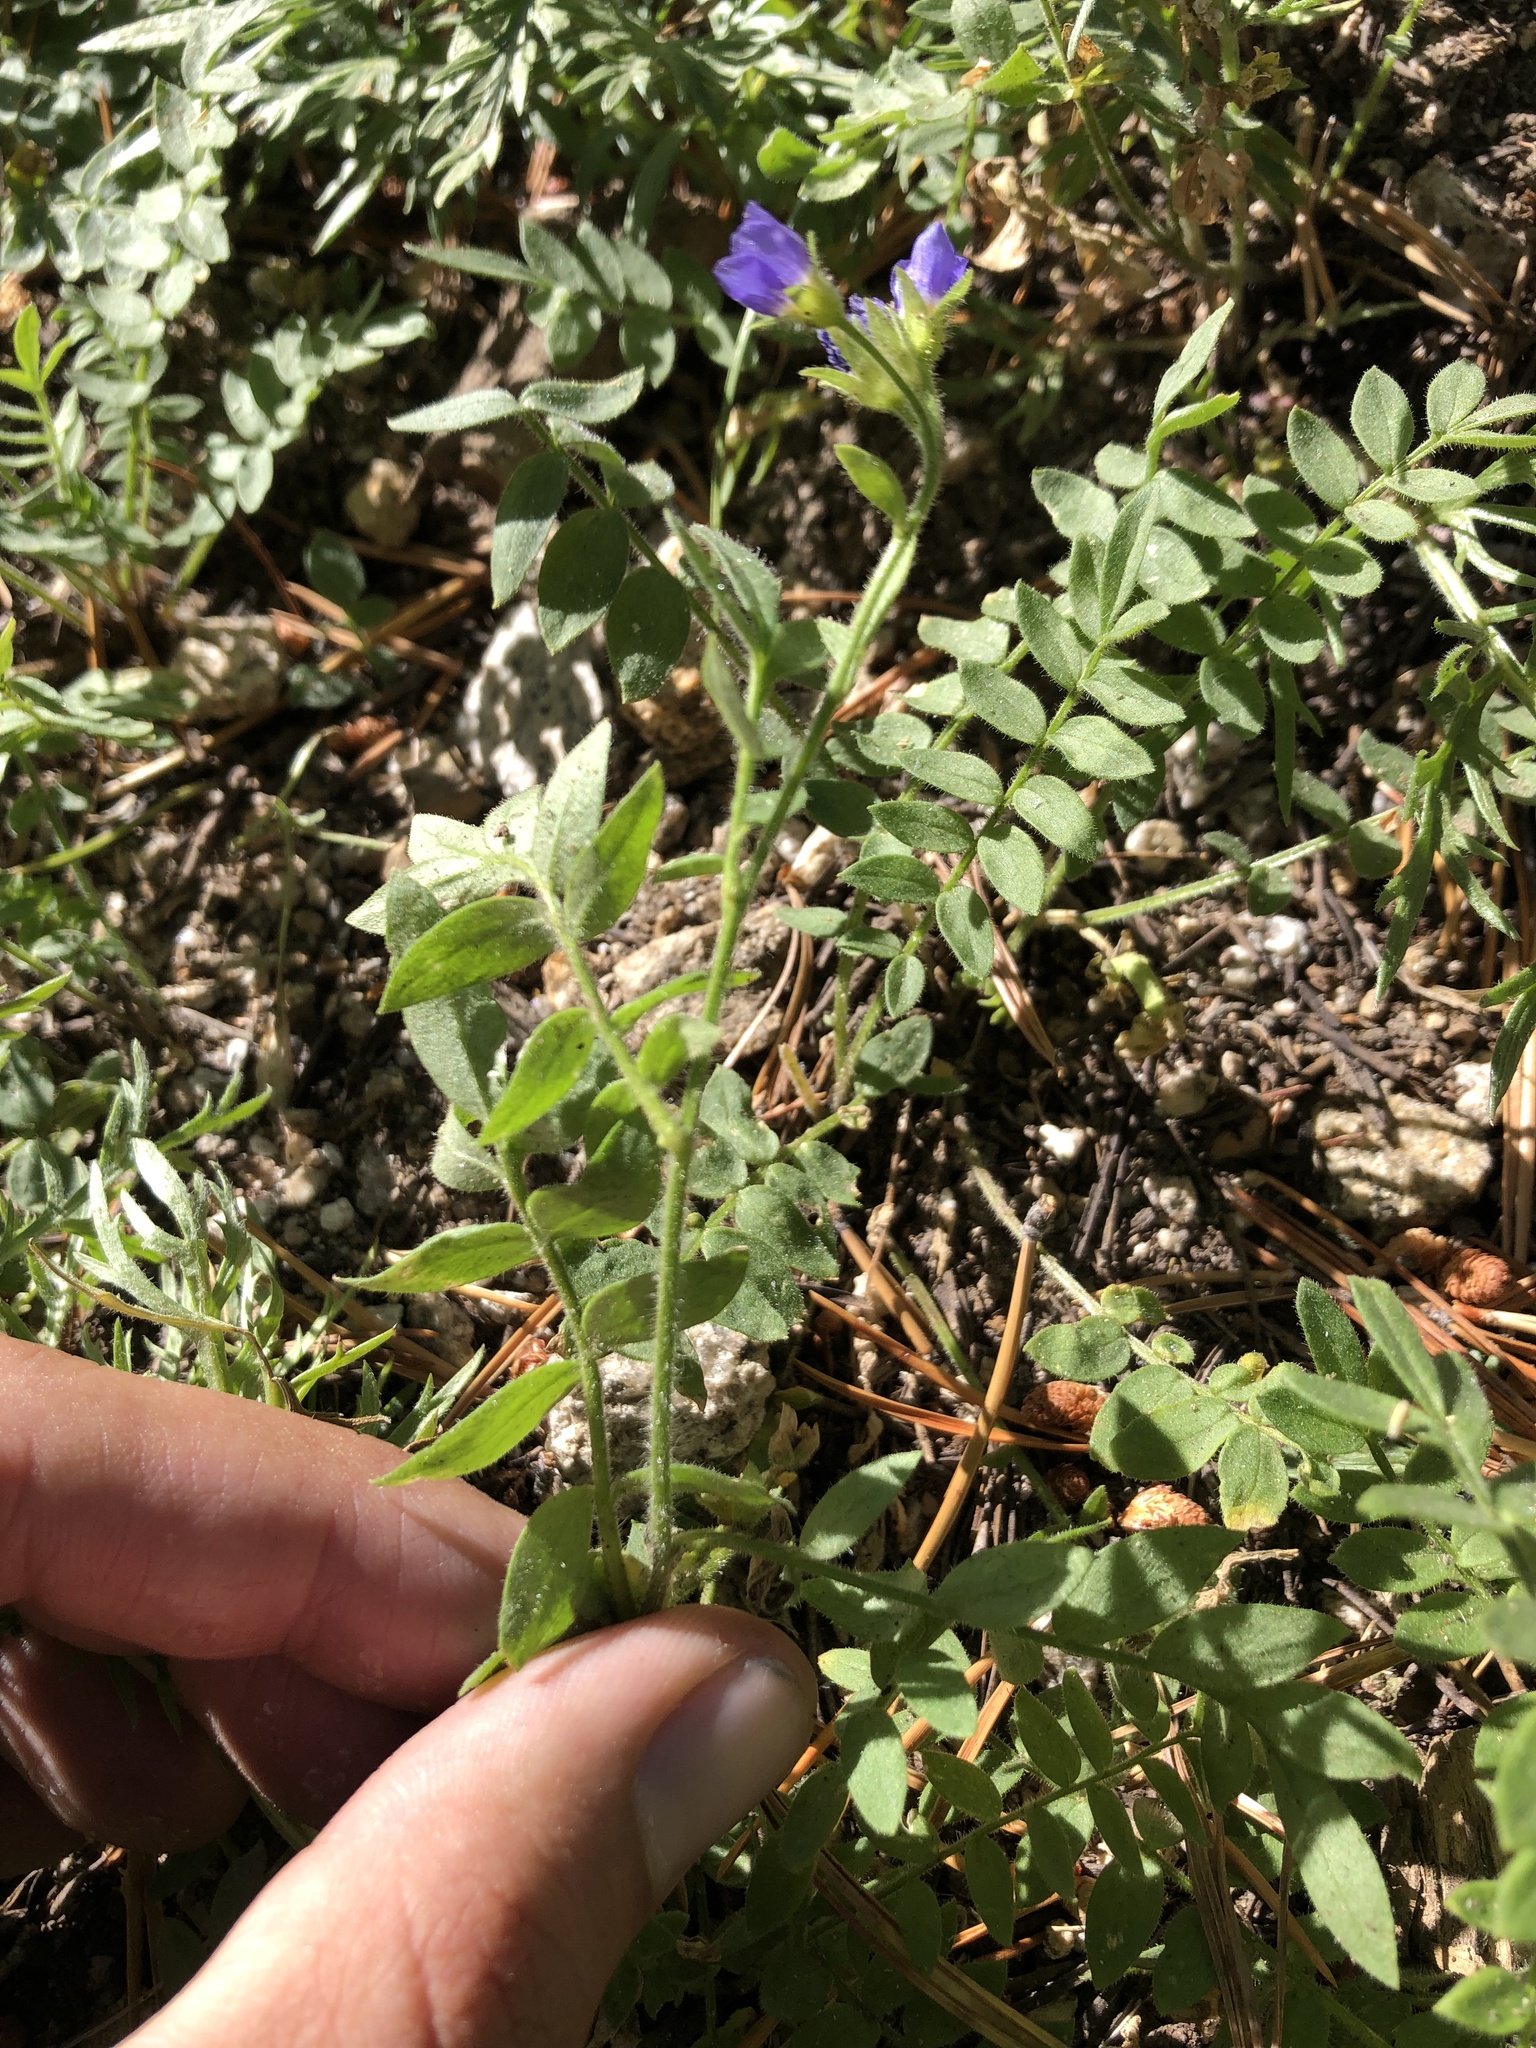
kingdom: Plantae
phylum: Tracheophyta
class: Magnoliopsida
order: Ericales
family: Polemoniaceae
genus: Polemonium
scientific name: Polemonium californicum
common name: California jacob's ladder
